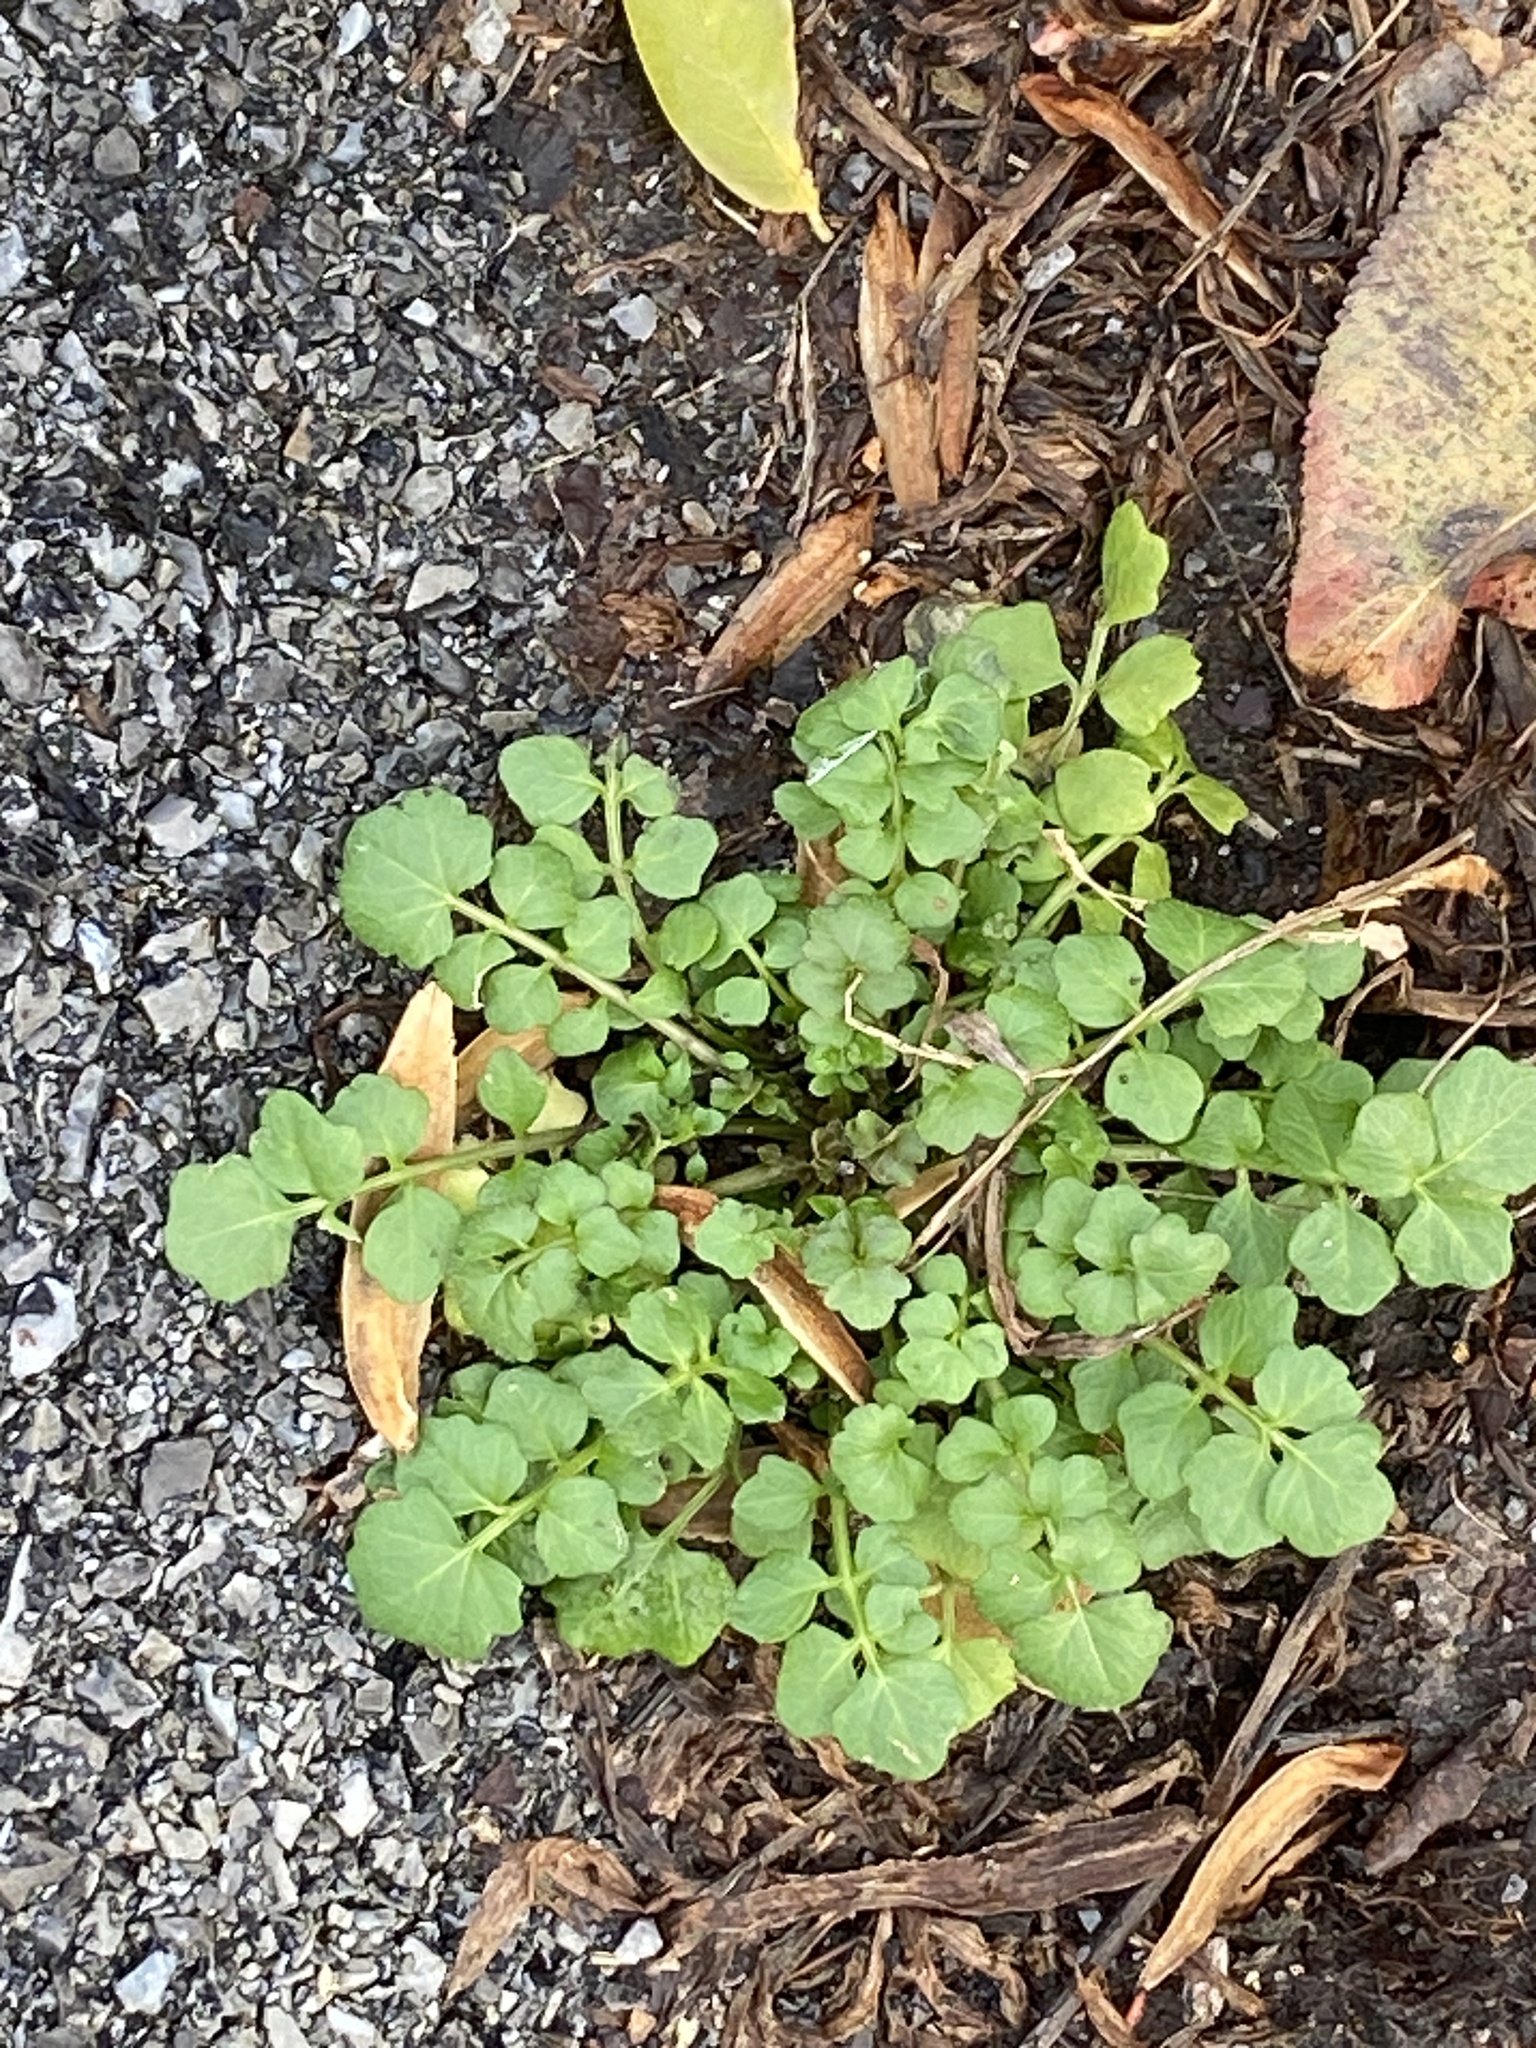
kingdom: Plantae
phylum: Tracheophyta
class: Magnoliopsida
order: Brassicales
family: Brassicaceae
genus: Cardamine
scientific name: Cardamine hirsuta
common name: Hairy bittercress
